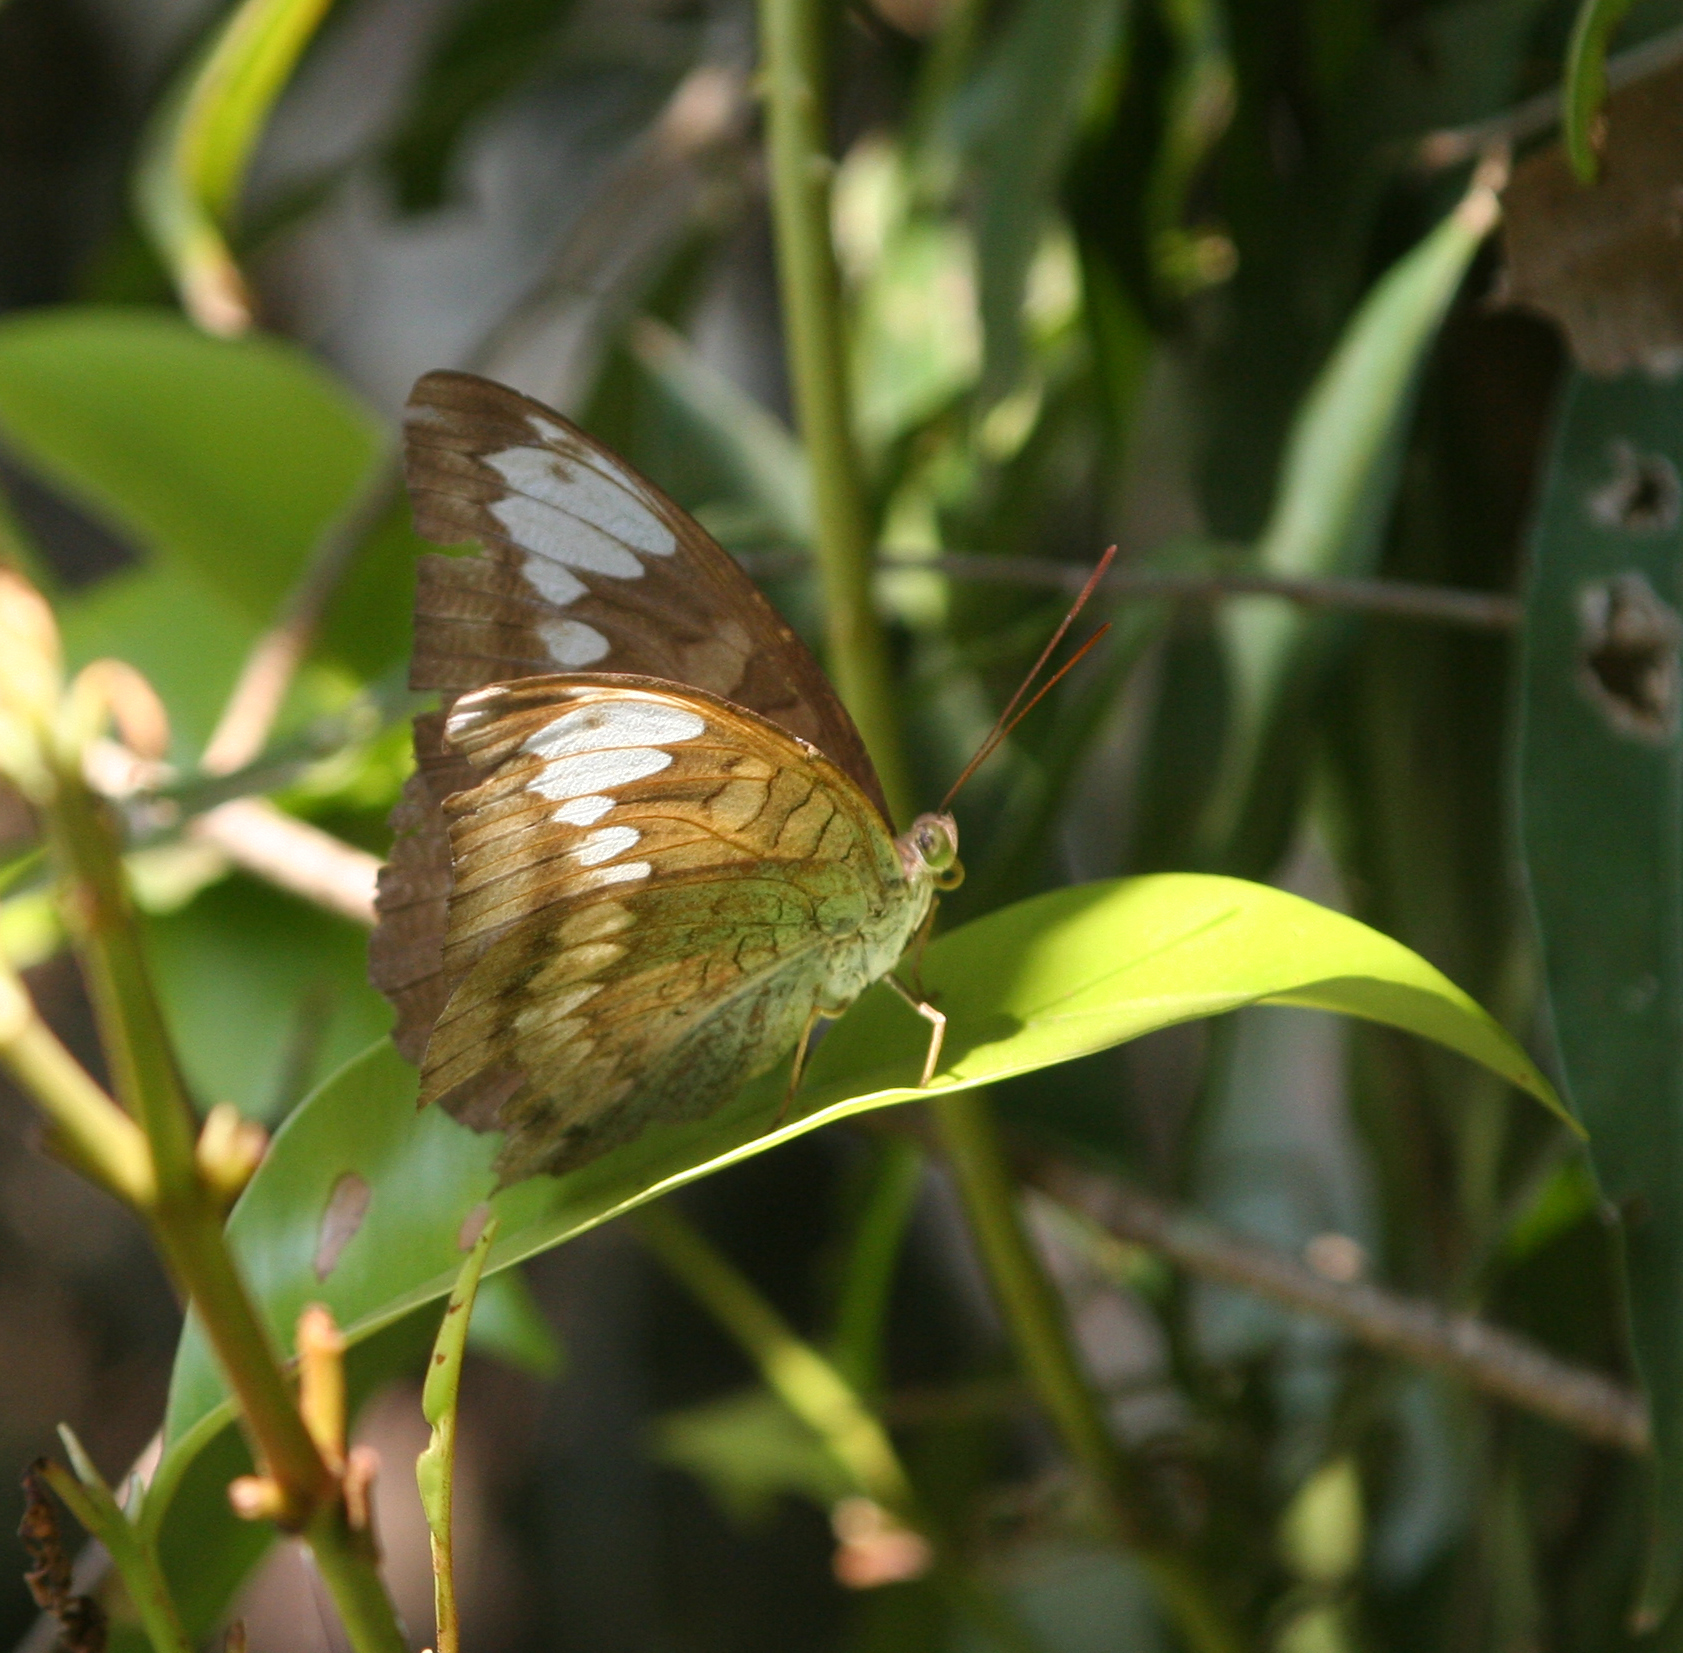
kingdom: Animalia
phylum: Arthropoda
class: Insecta
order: Lepidoptera
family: Nymphalidae
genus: Tanaecia
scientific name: Tanaecia julii
